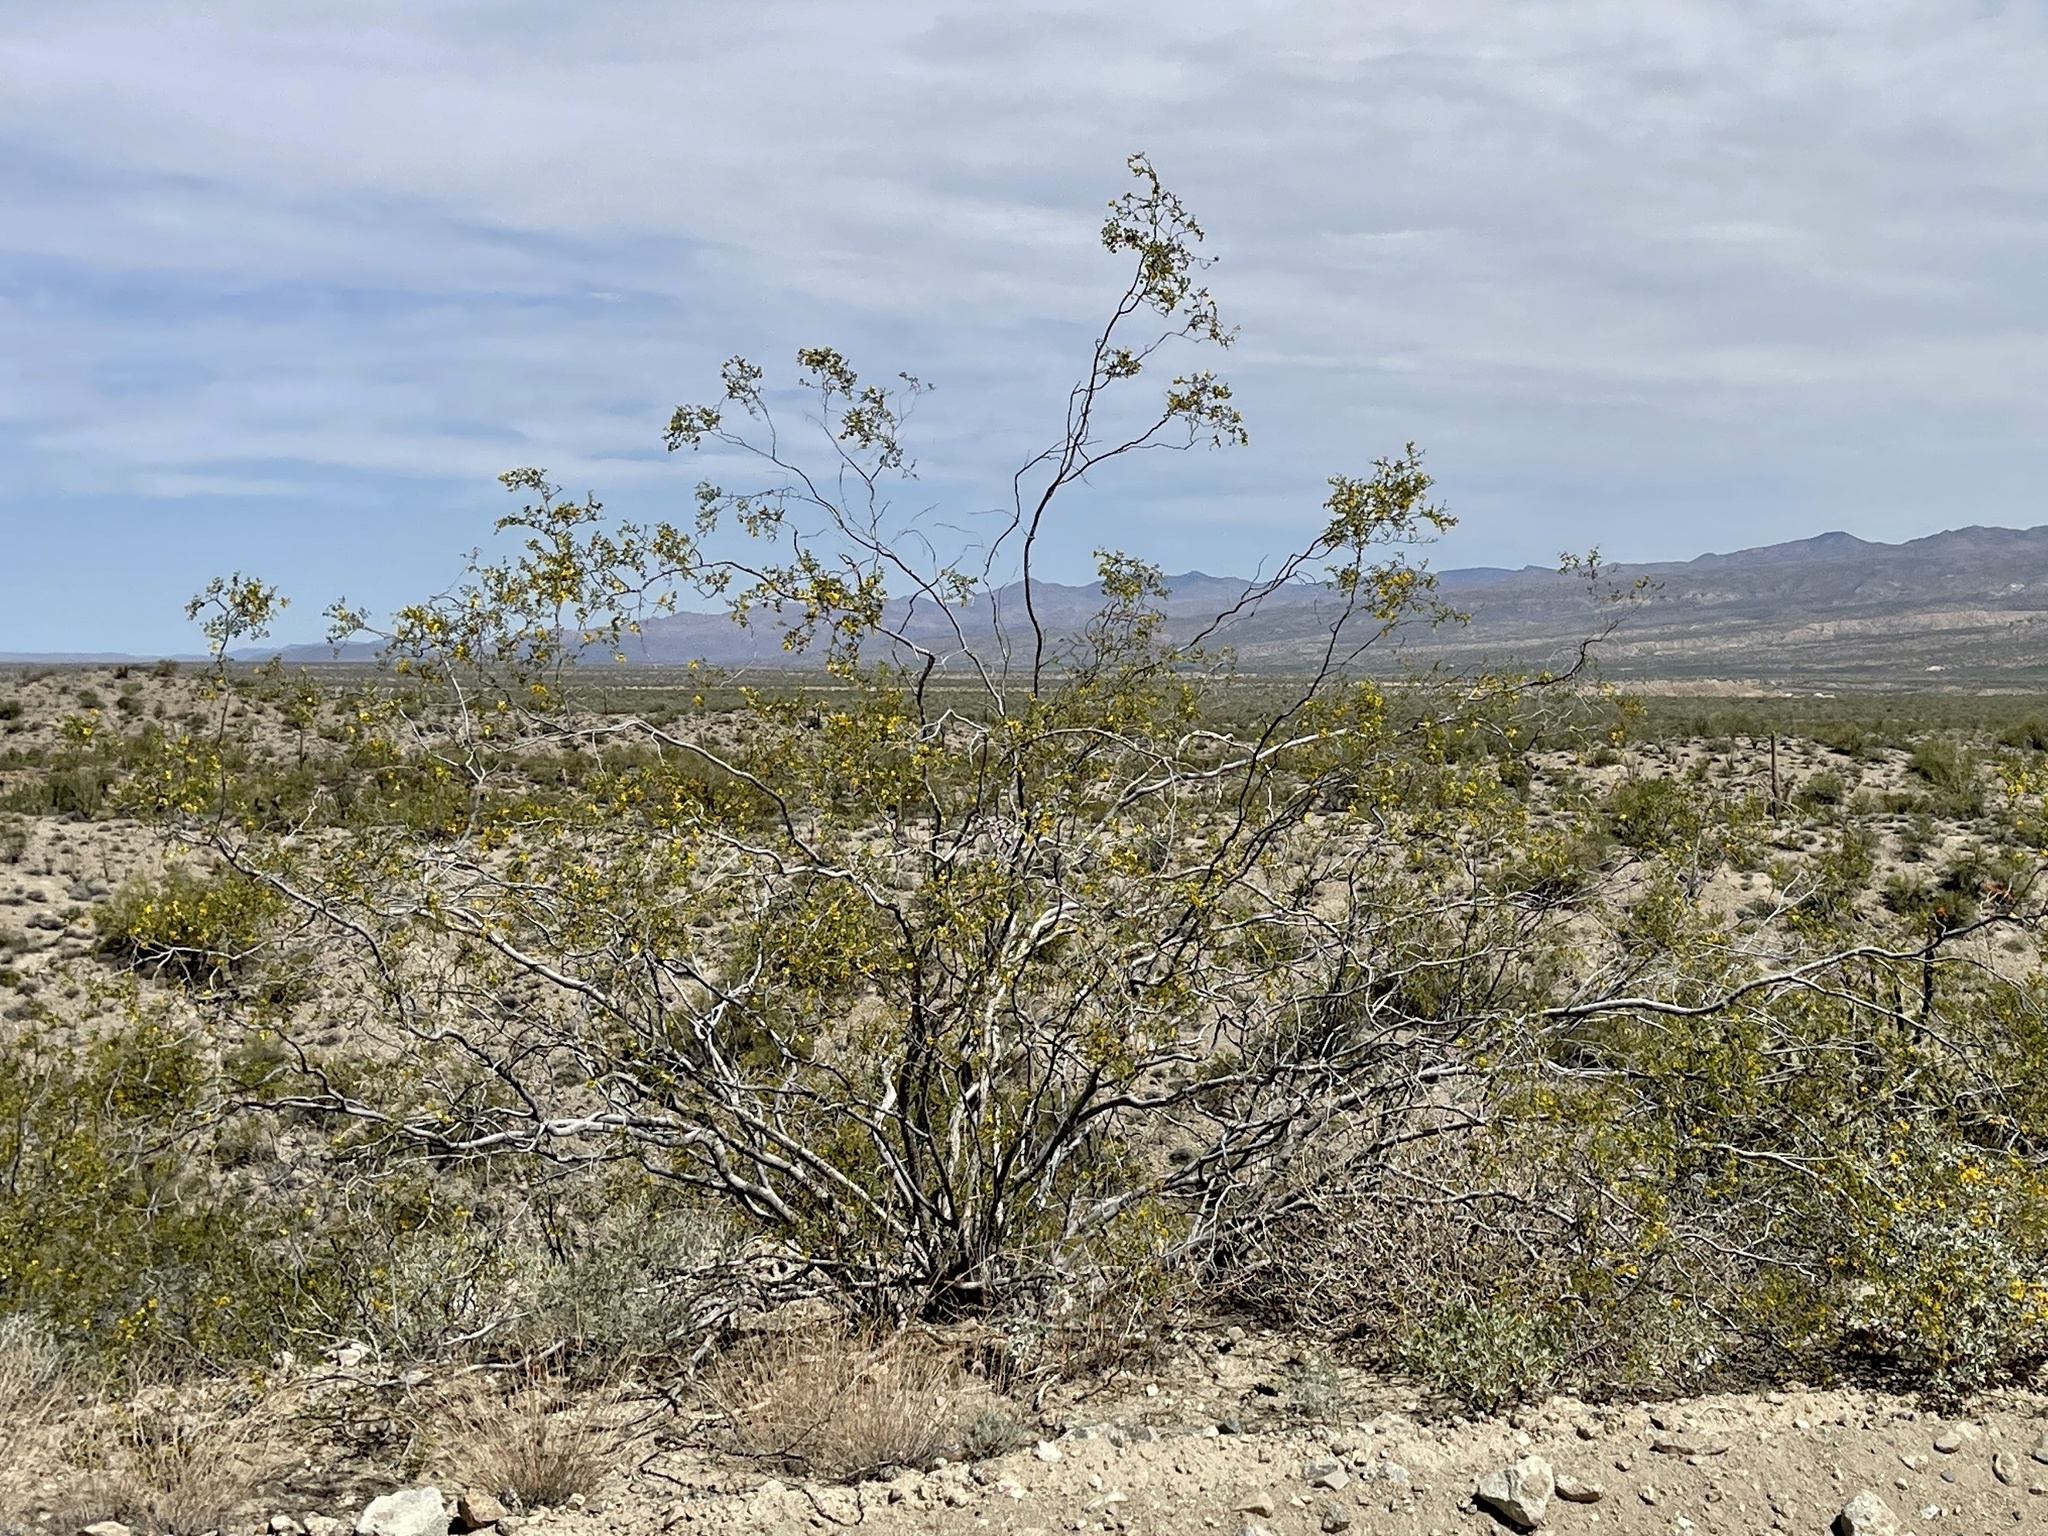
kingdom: Plantae
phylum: Tracheophyta
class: Magnoliopsida
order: Zygophyllales
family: Zygophyllaceae
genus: Larrea
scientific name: Larrea tridentata
